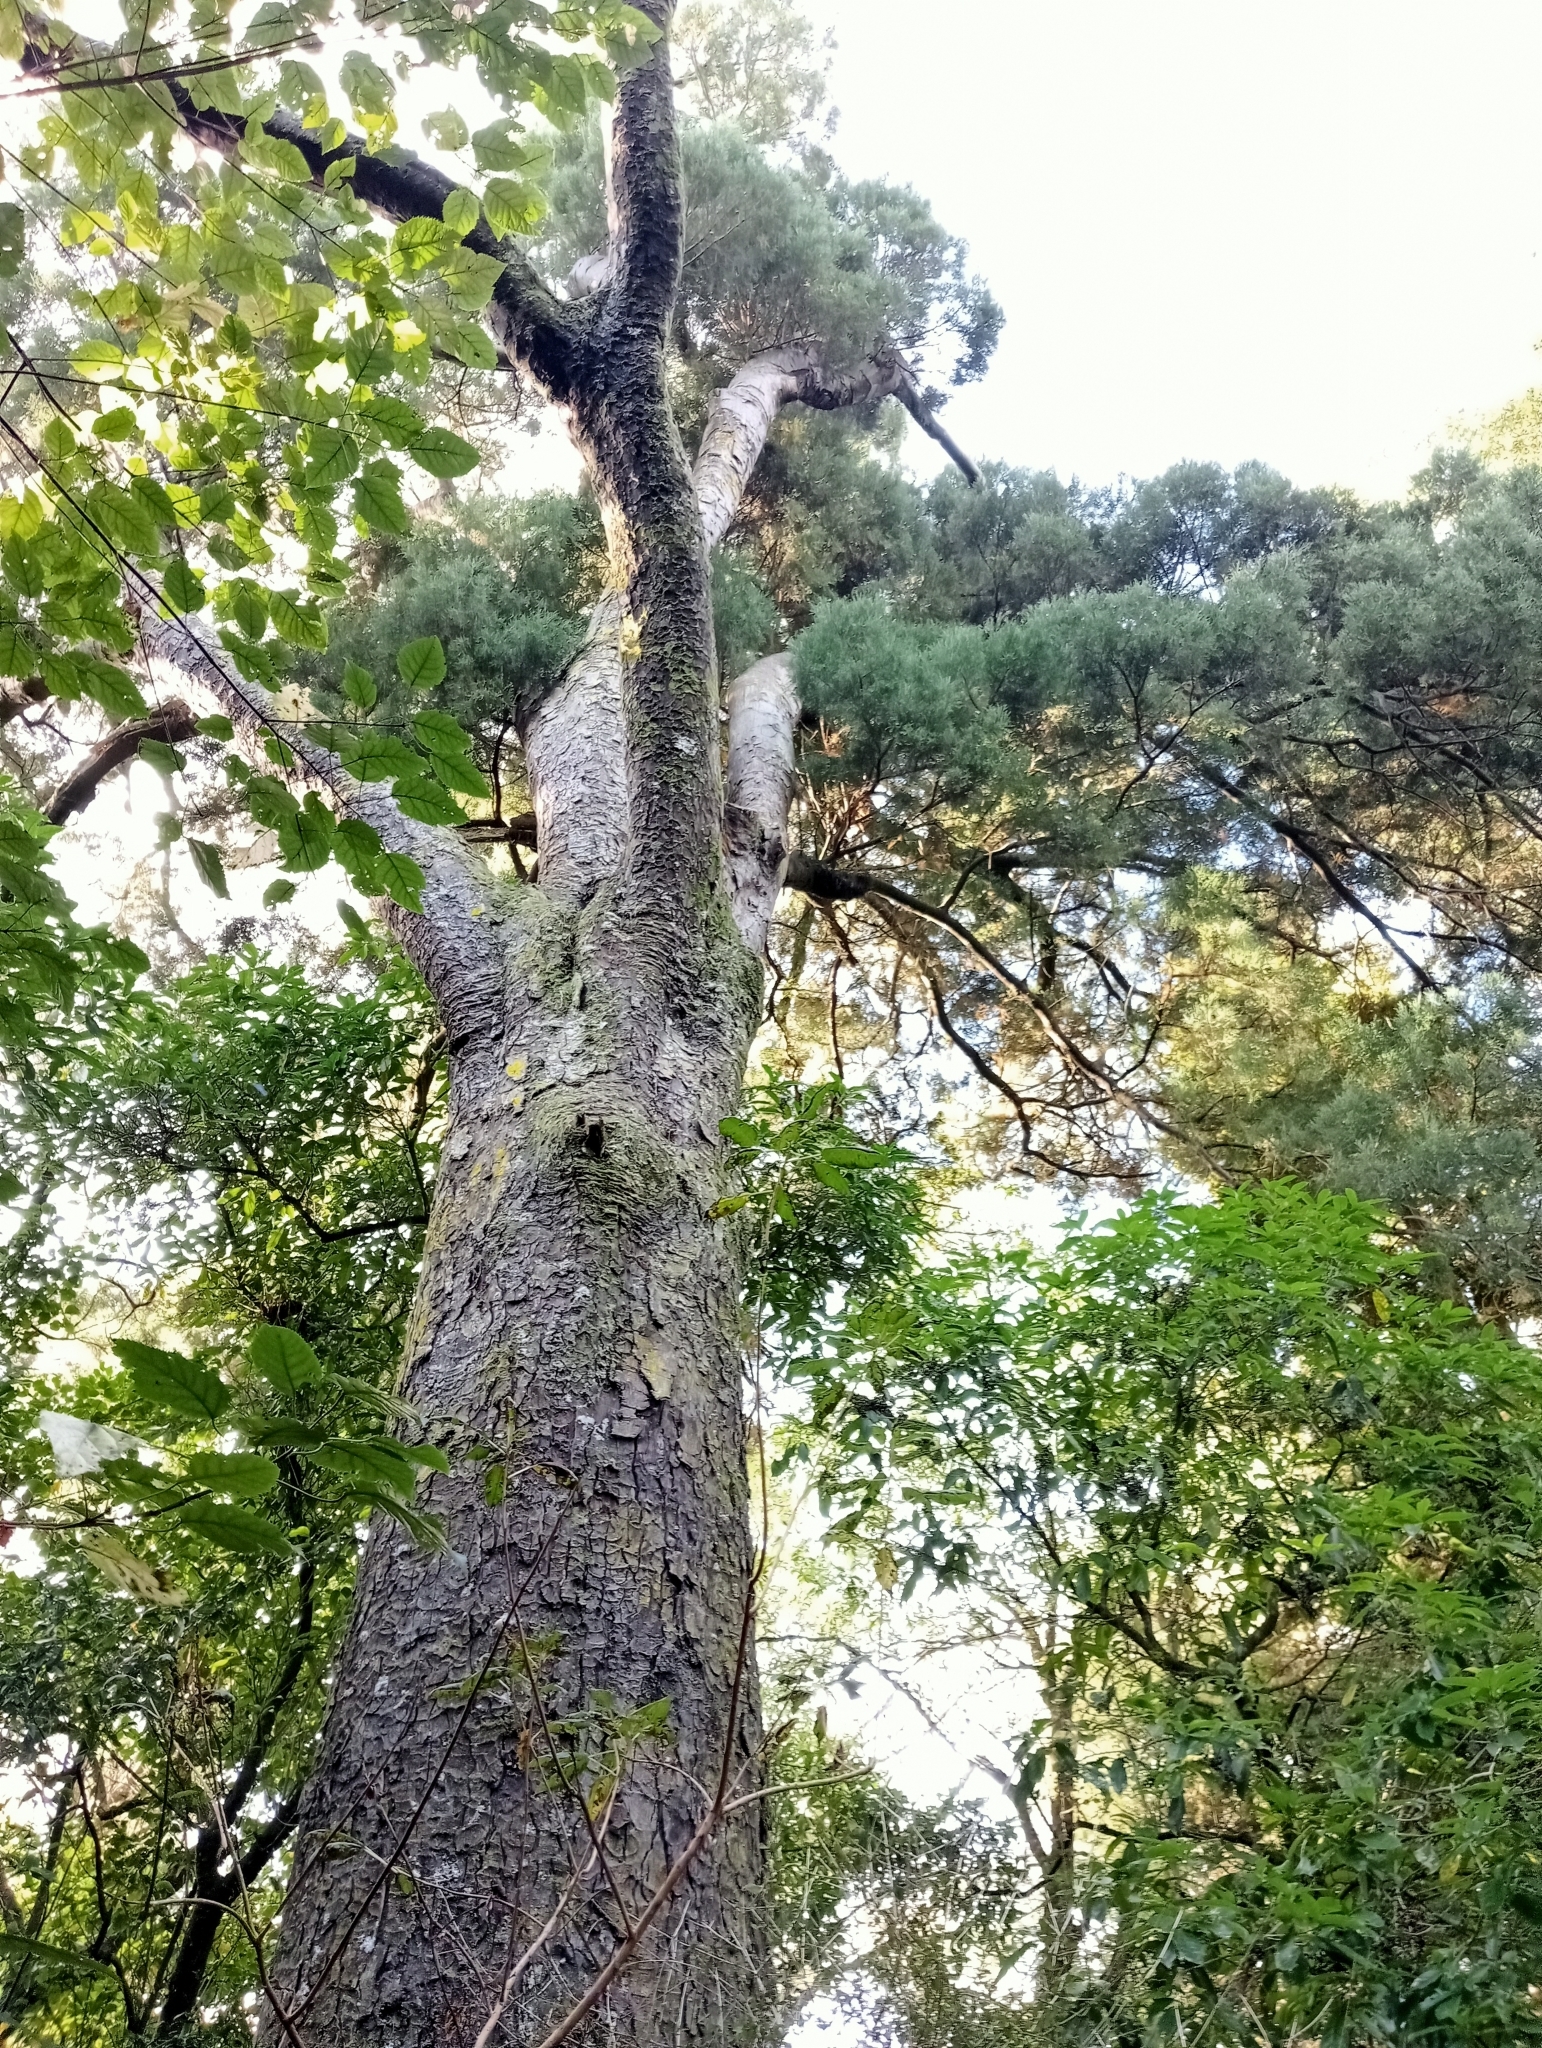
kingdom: Plantae
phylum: Tracheophyta
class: Pinopsida
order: Pinales
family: Podocarpaceae
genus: Dacrycarpus
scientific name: Dacrycarpus dacrydioides
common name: White pine
